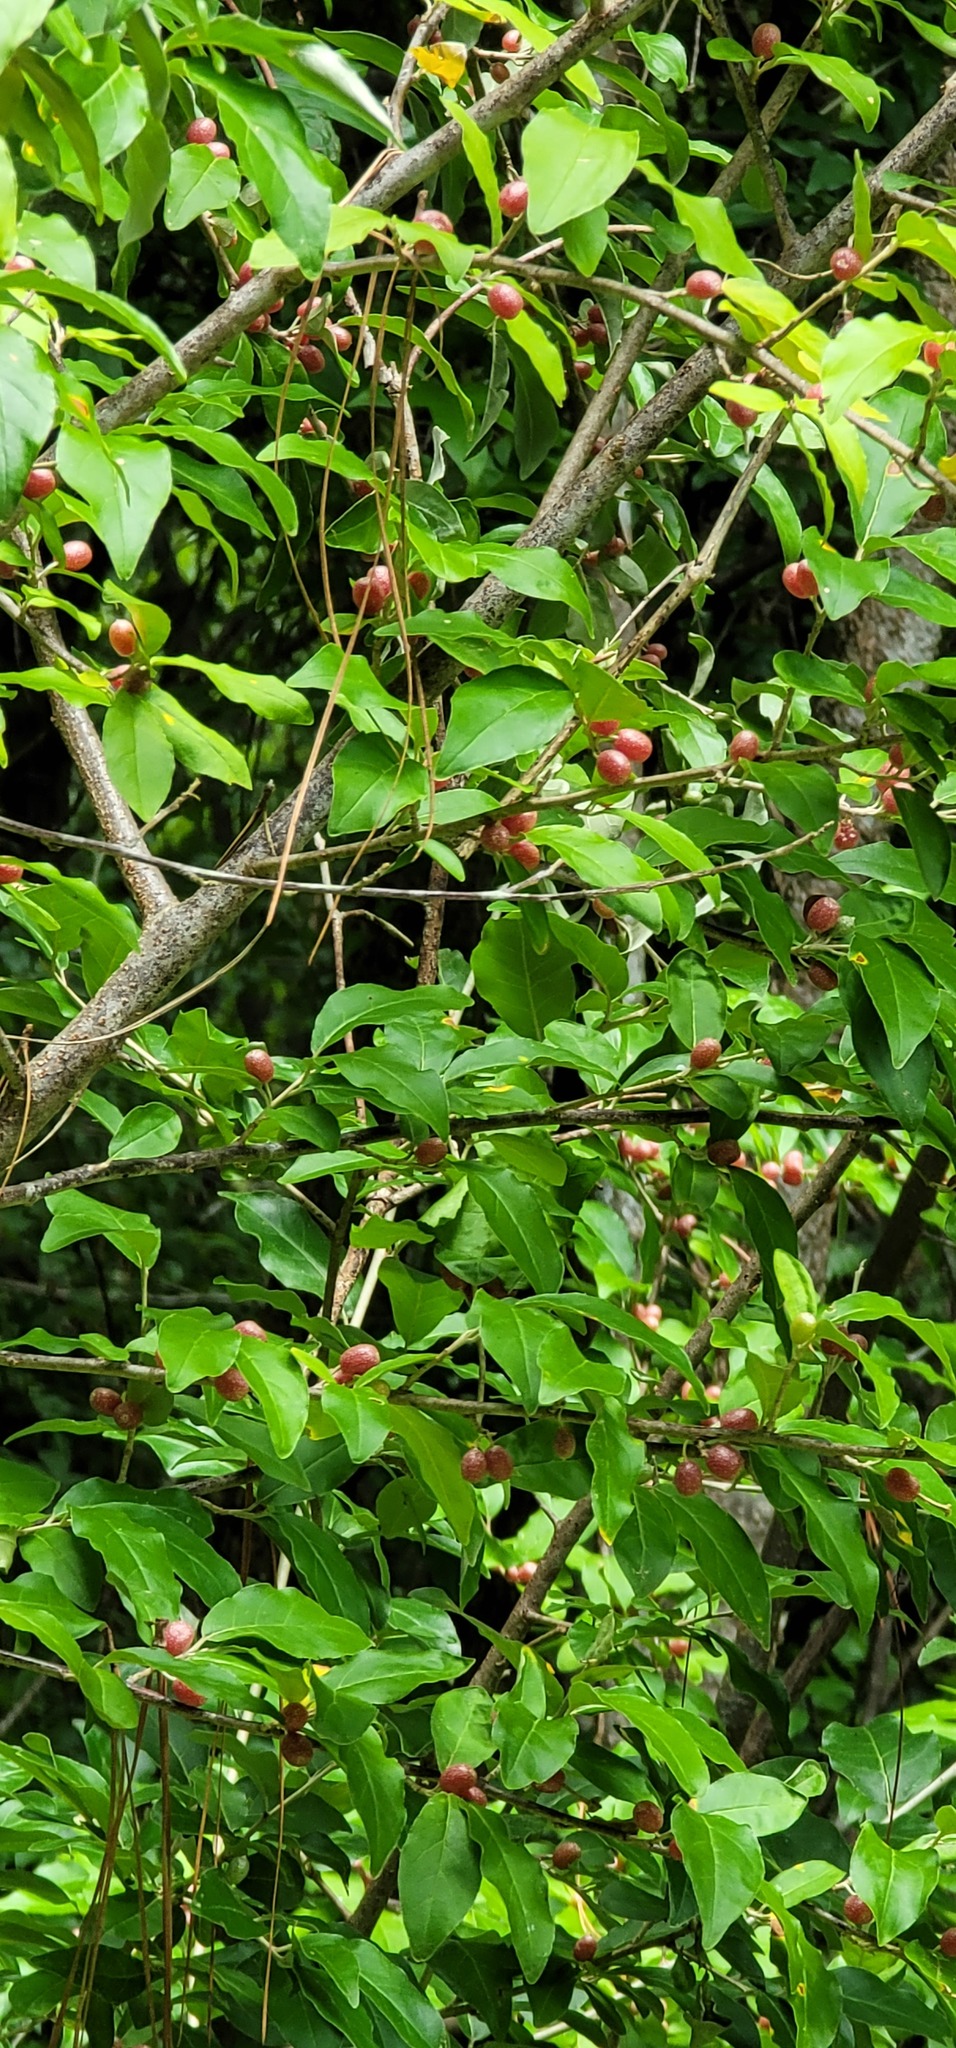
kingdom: Plantae
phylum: Tracheophyta
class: Magnoliopsida
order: Rosales
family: Elaeagnaceae
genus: Elaeagnus
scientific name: Elaeagnus umbellata
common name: Autumn olive
